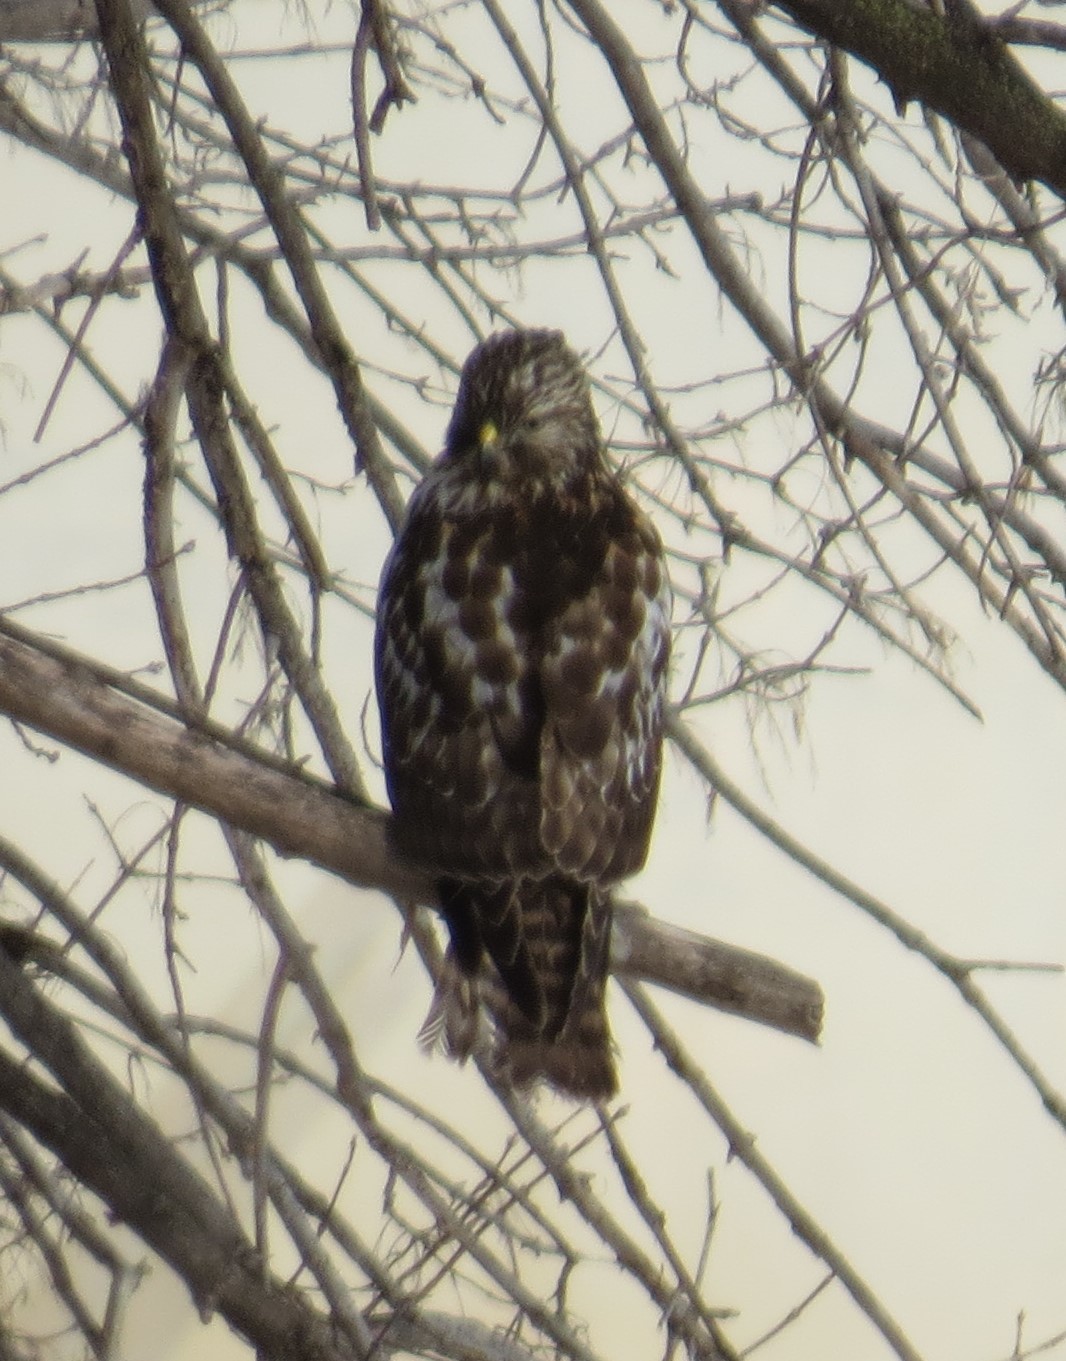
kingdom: Animalia
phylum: Chordata
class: Aves
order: Accipitriformes
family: Accipitridae
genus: Buteo
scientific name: Buteo lineatus
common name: Red-shouldered hawk
